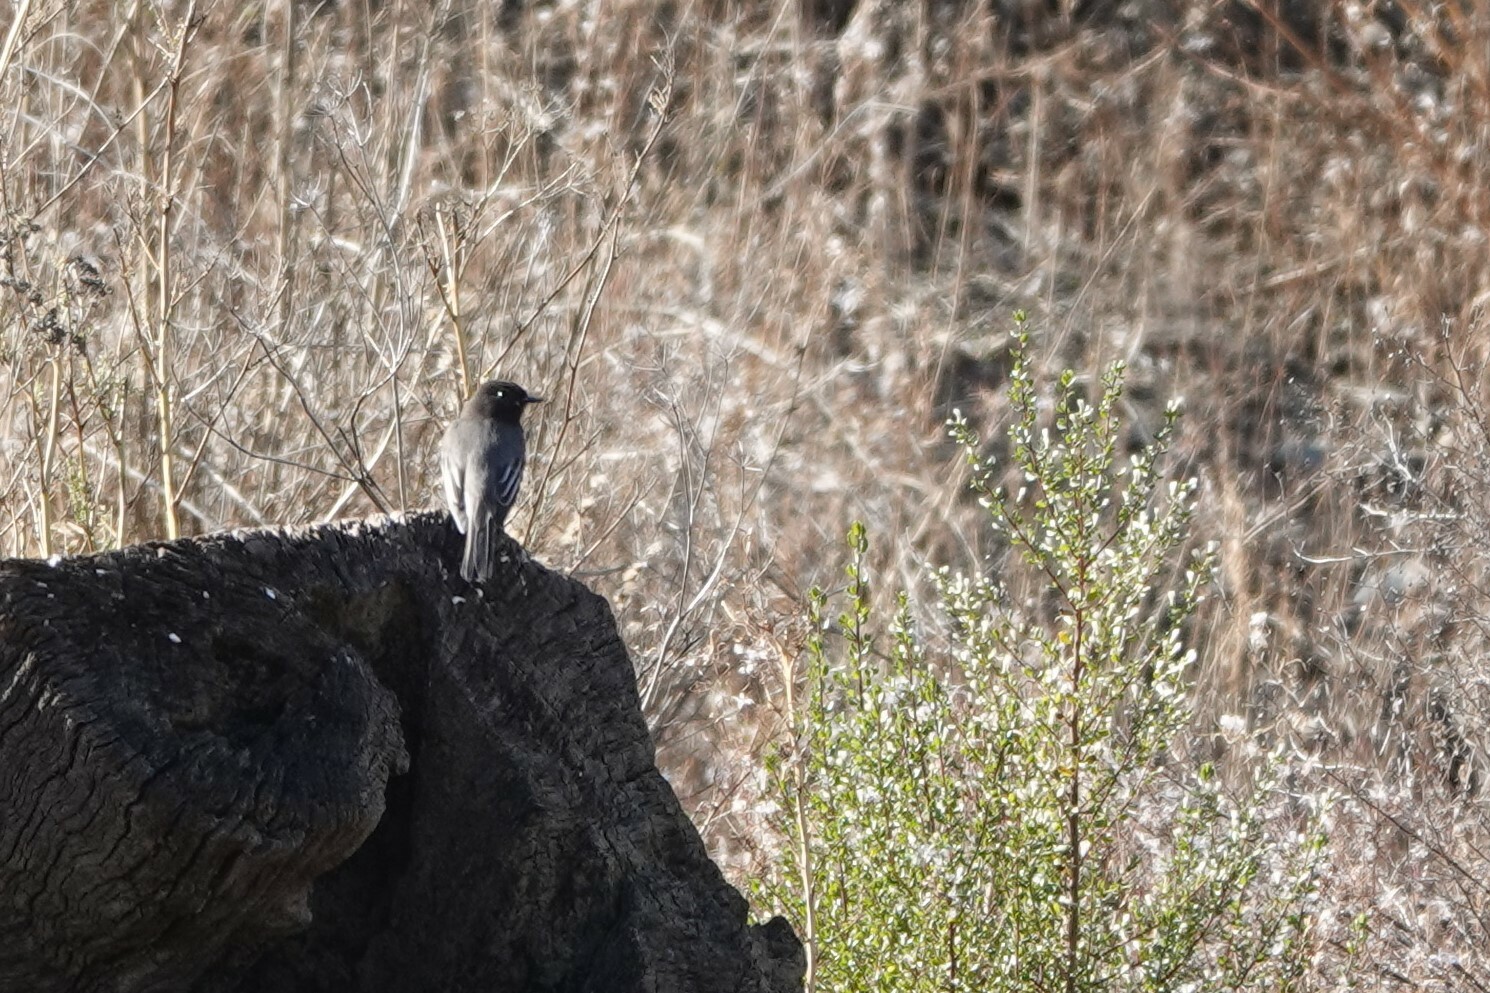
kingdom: Animalia
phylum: Chordata
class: Aves
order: Passeriformes
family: Tyrannidae
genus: Sayornis
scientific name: Sayornis nigricans
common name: Black phoebe
